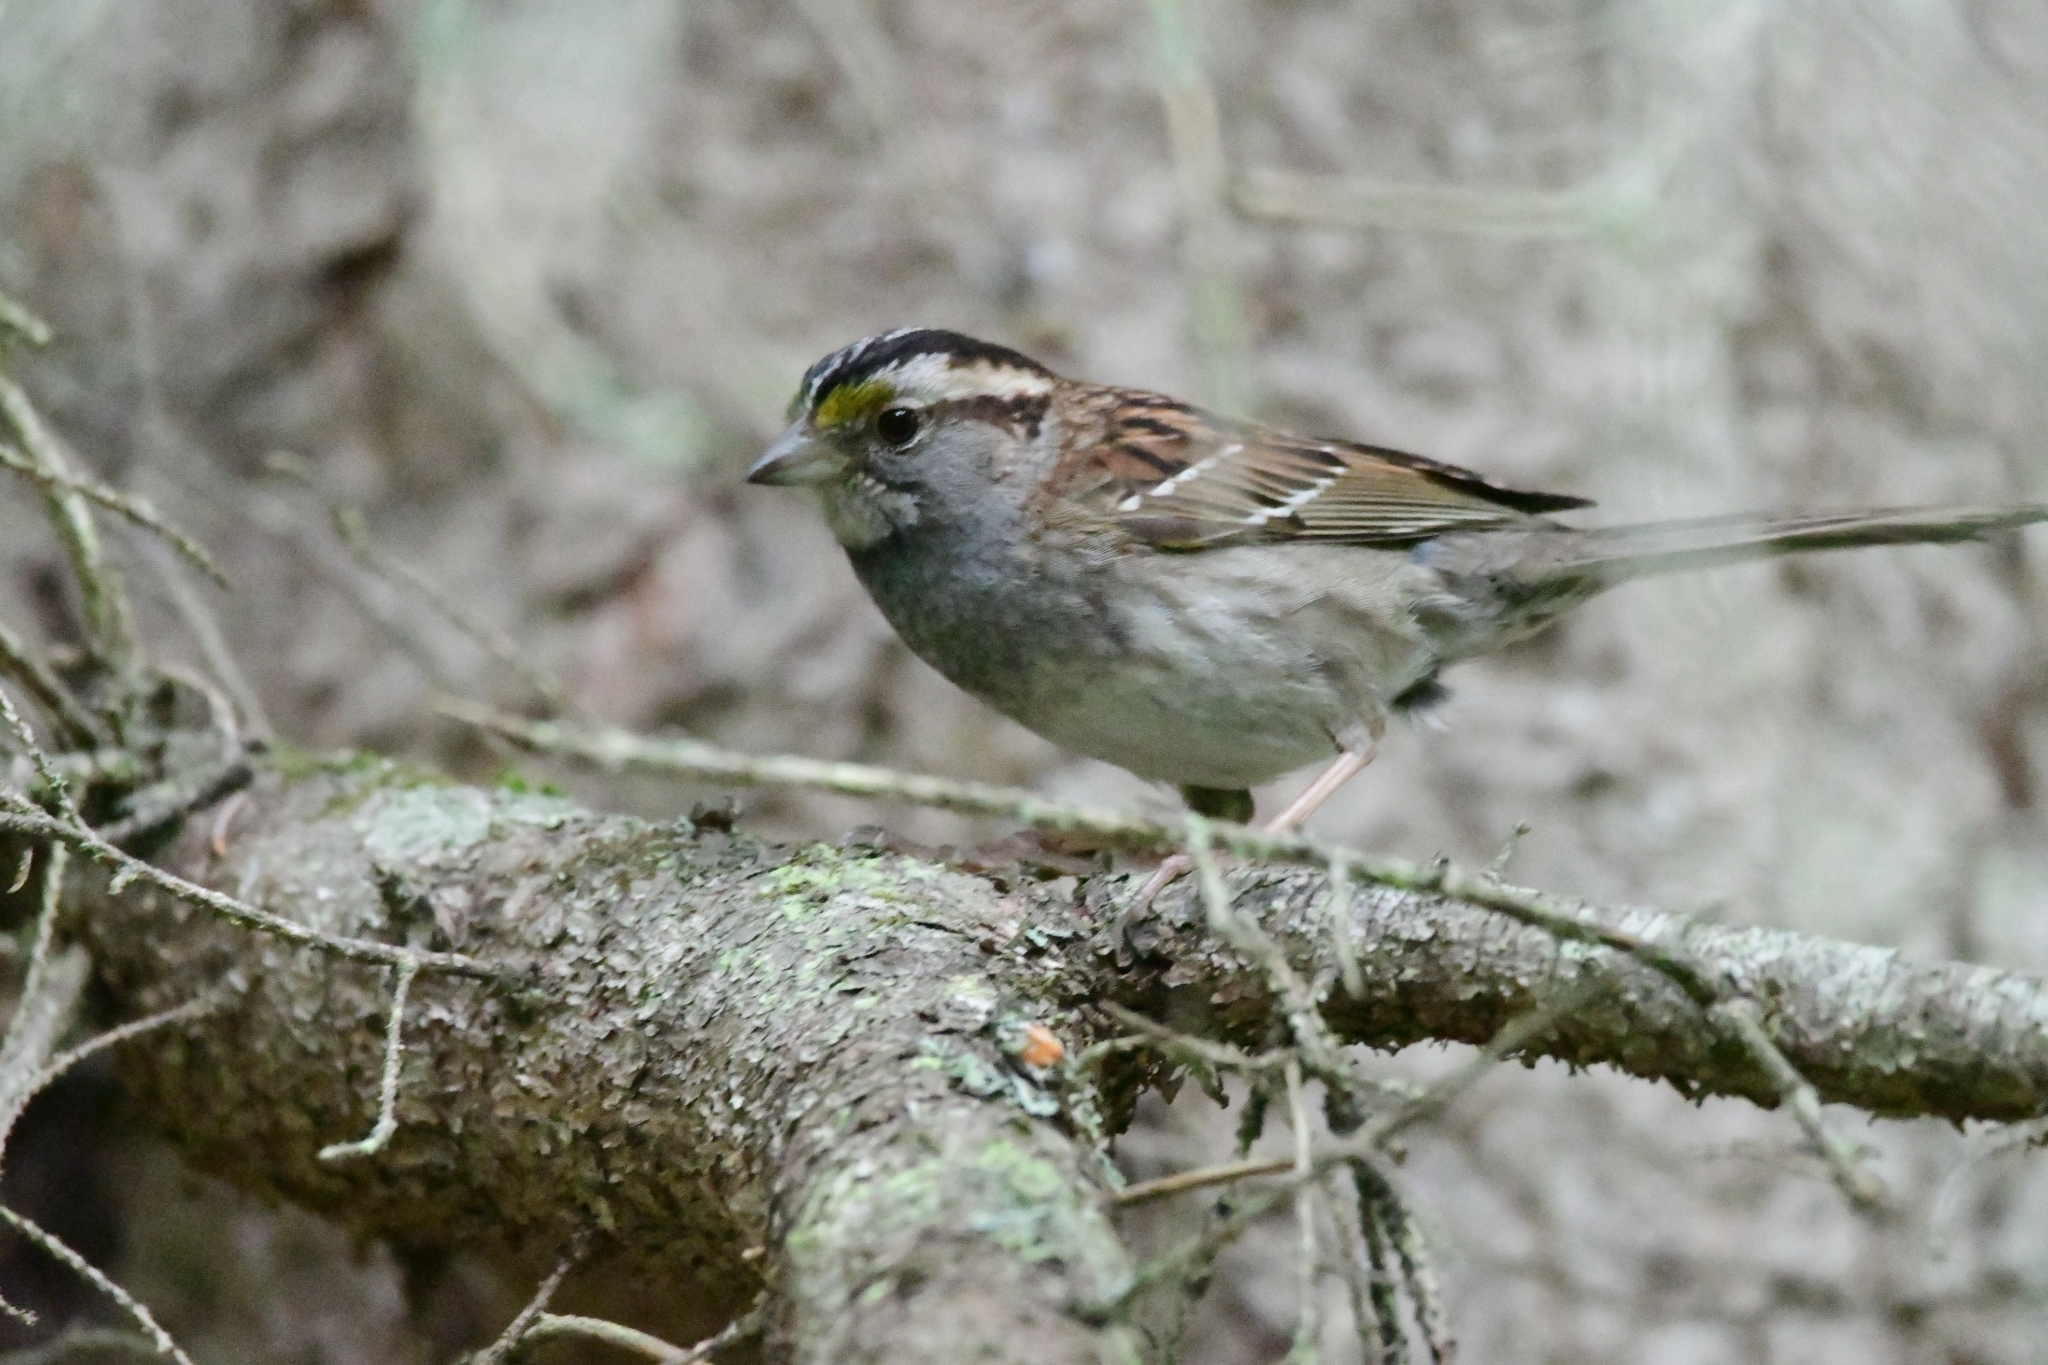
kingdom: Animalia
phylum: Chordata
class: Aves
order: Passeriformes
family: Passerellidae
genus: Zonotrichia
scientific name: Zonotrichia albicollis
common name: White-throated sparrow
